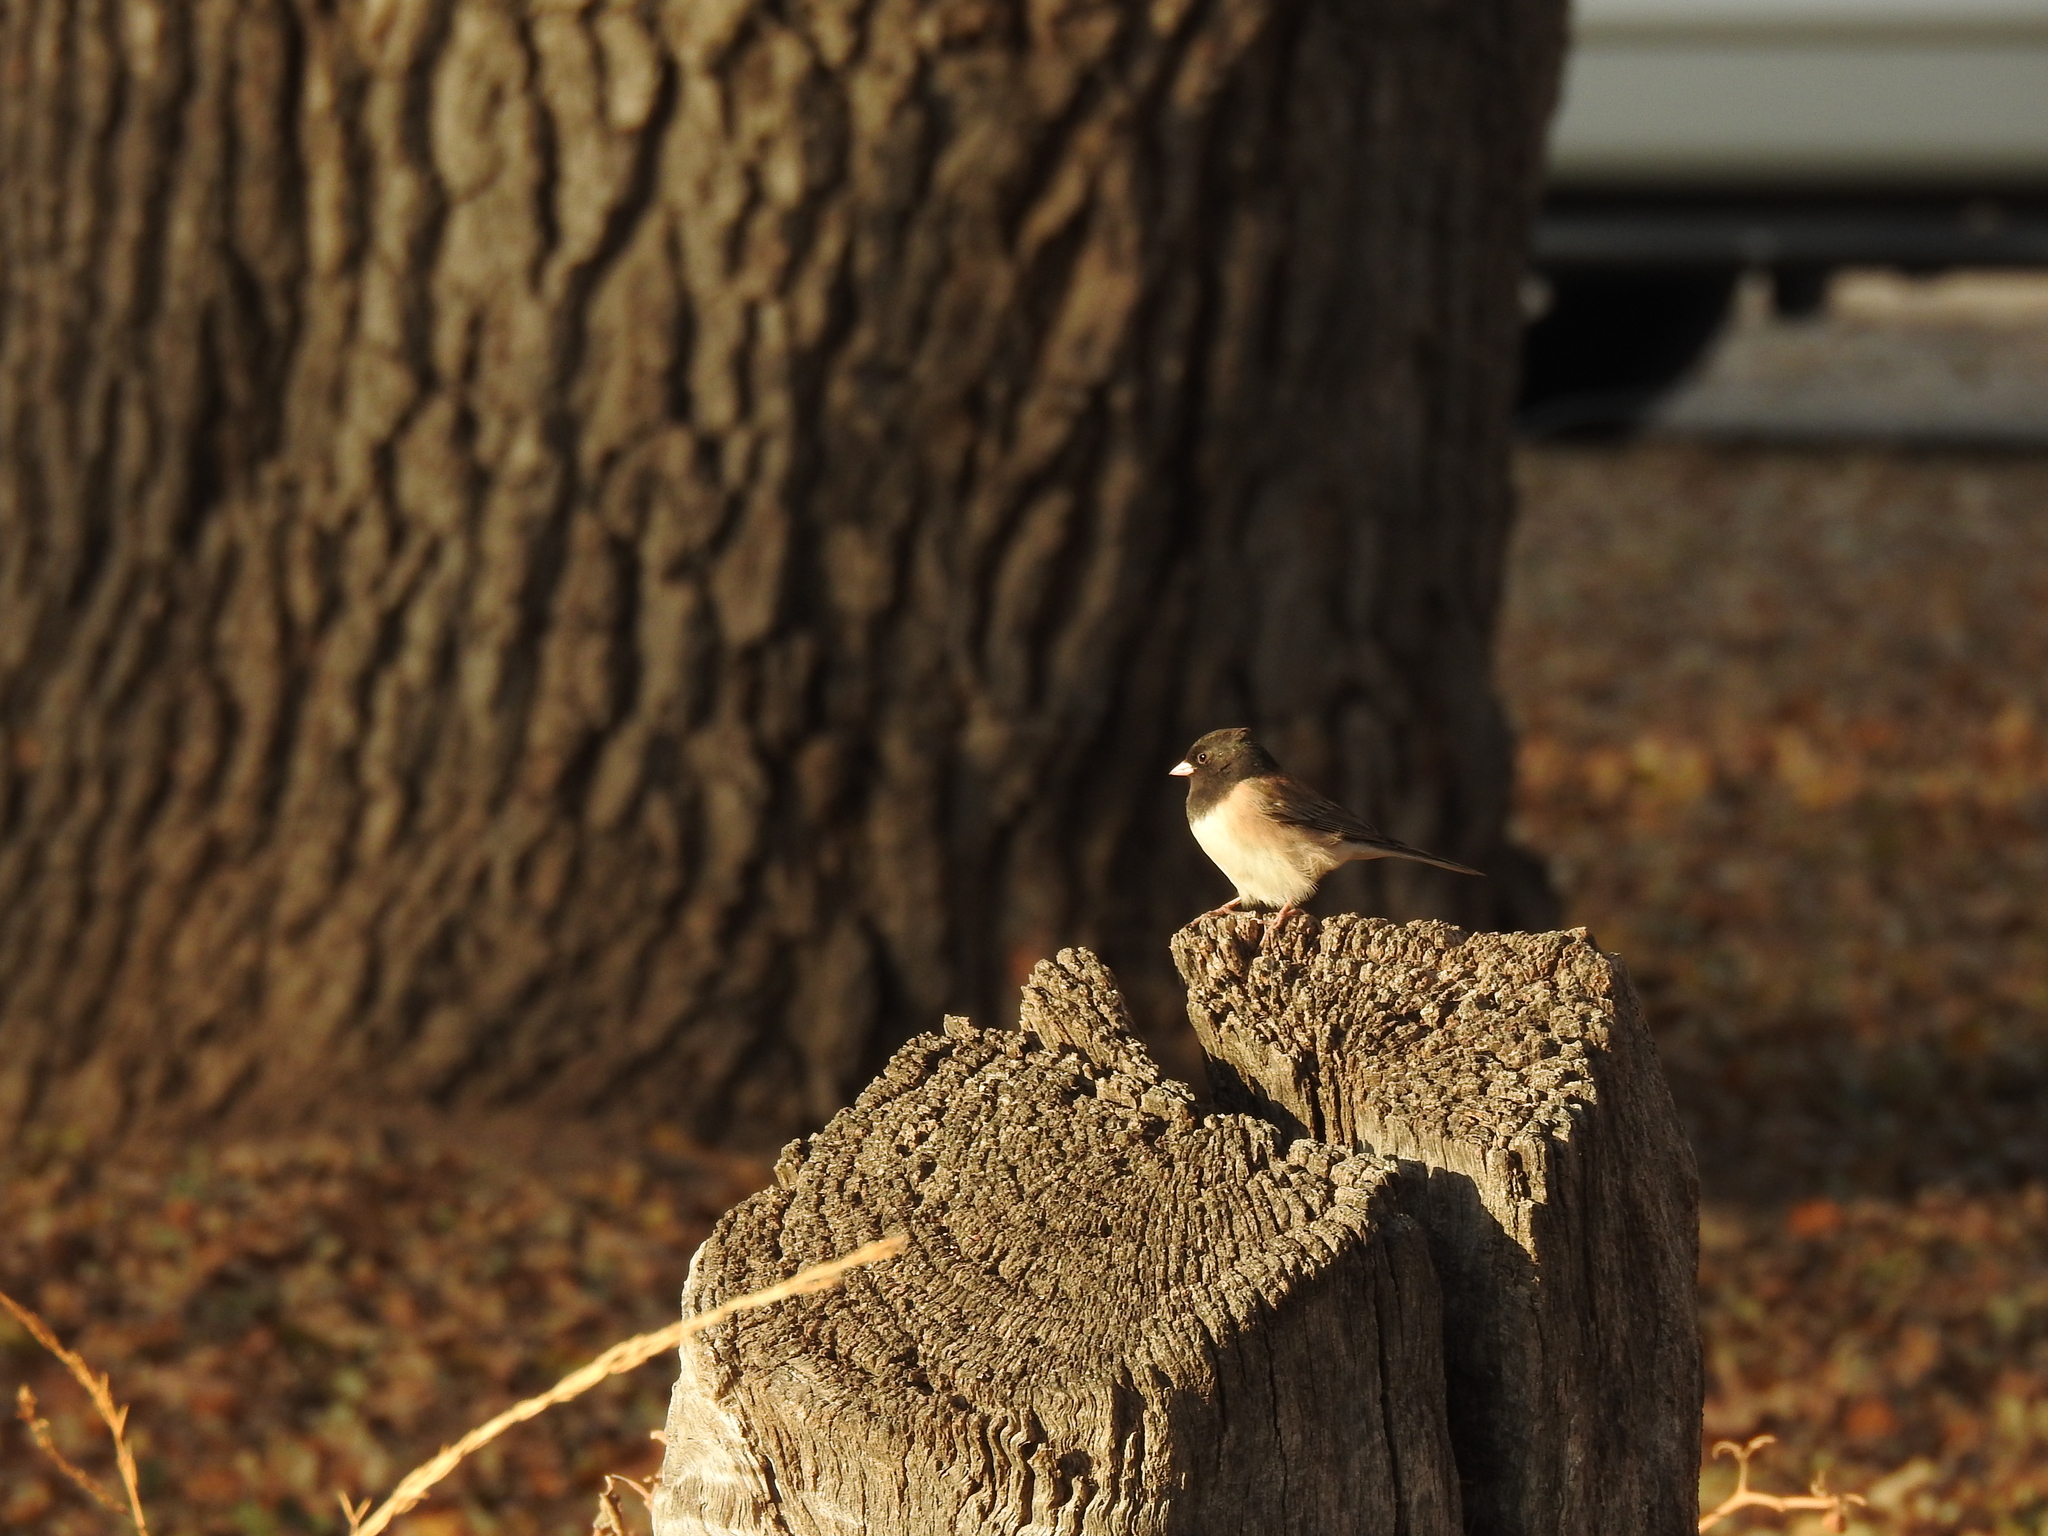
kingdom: Animalia
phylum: Chordata
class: Aves
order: Passeriformes
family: Passerellidae
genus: Junco
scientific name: Junco hyemalis
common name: Dark-eyed junco
